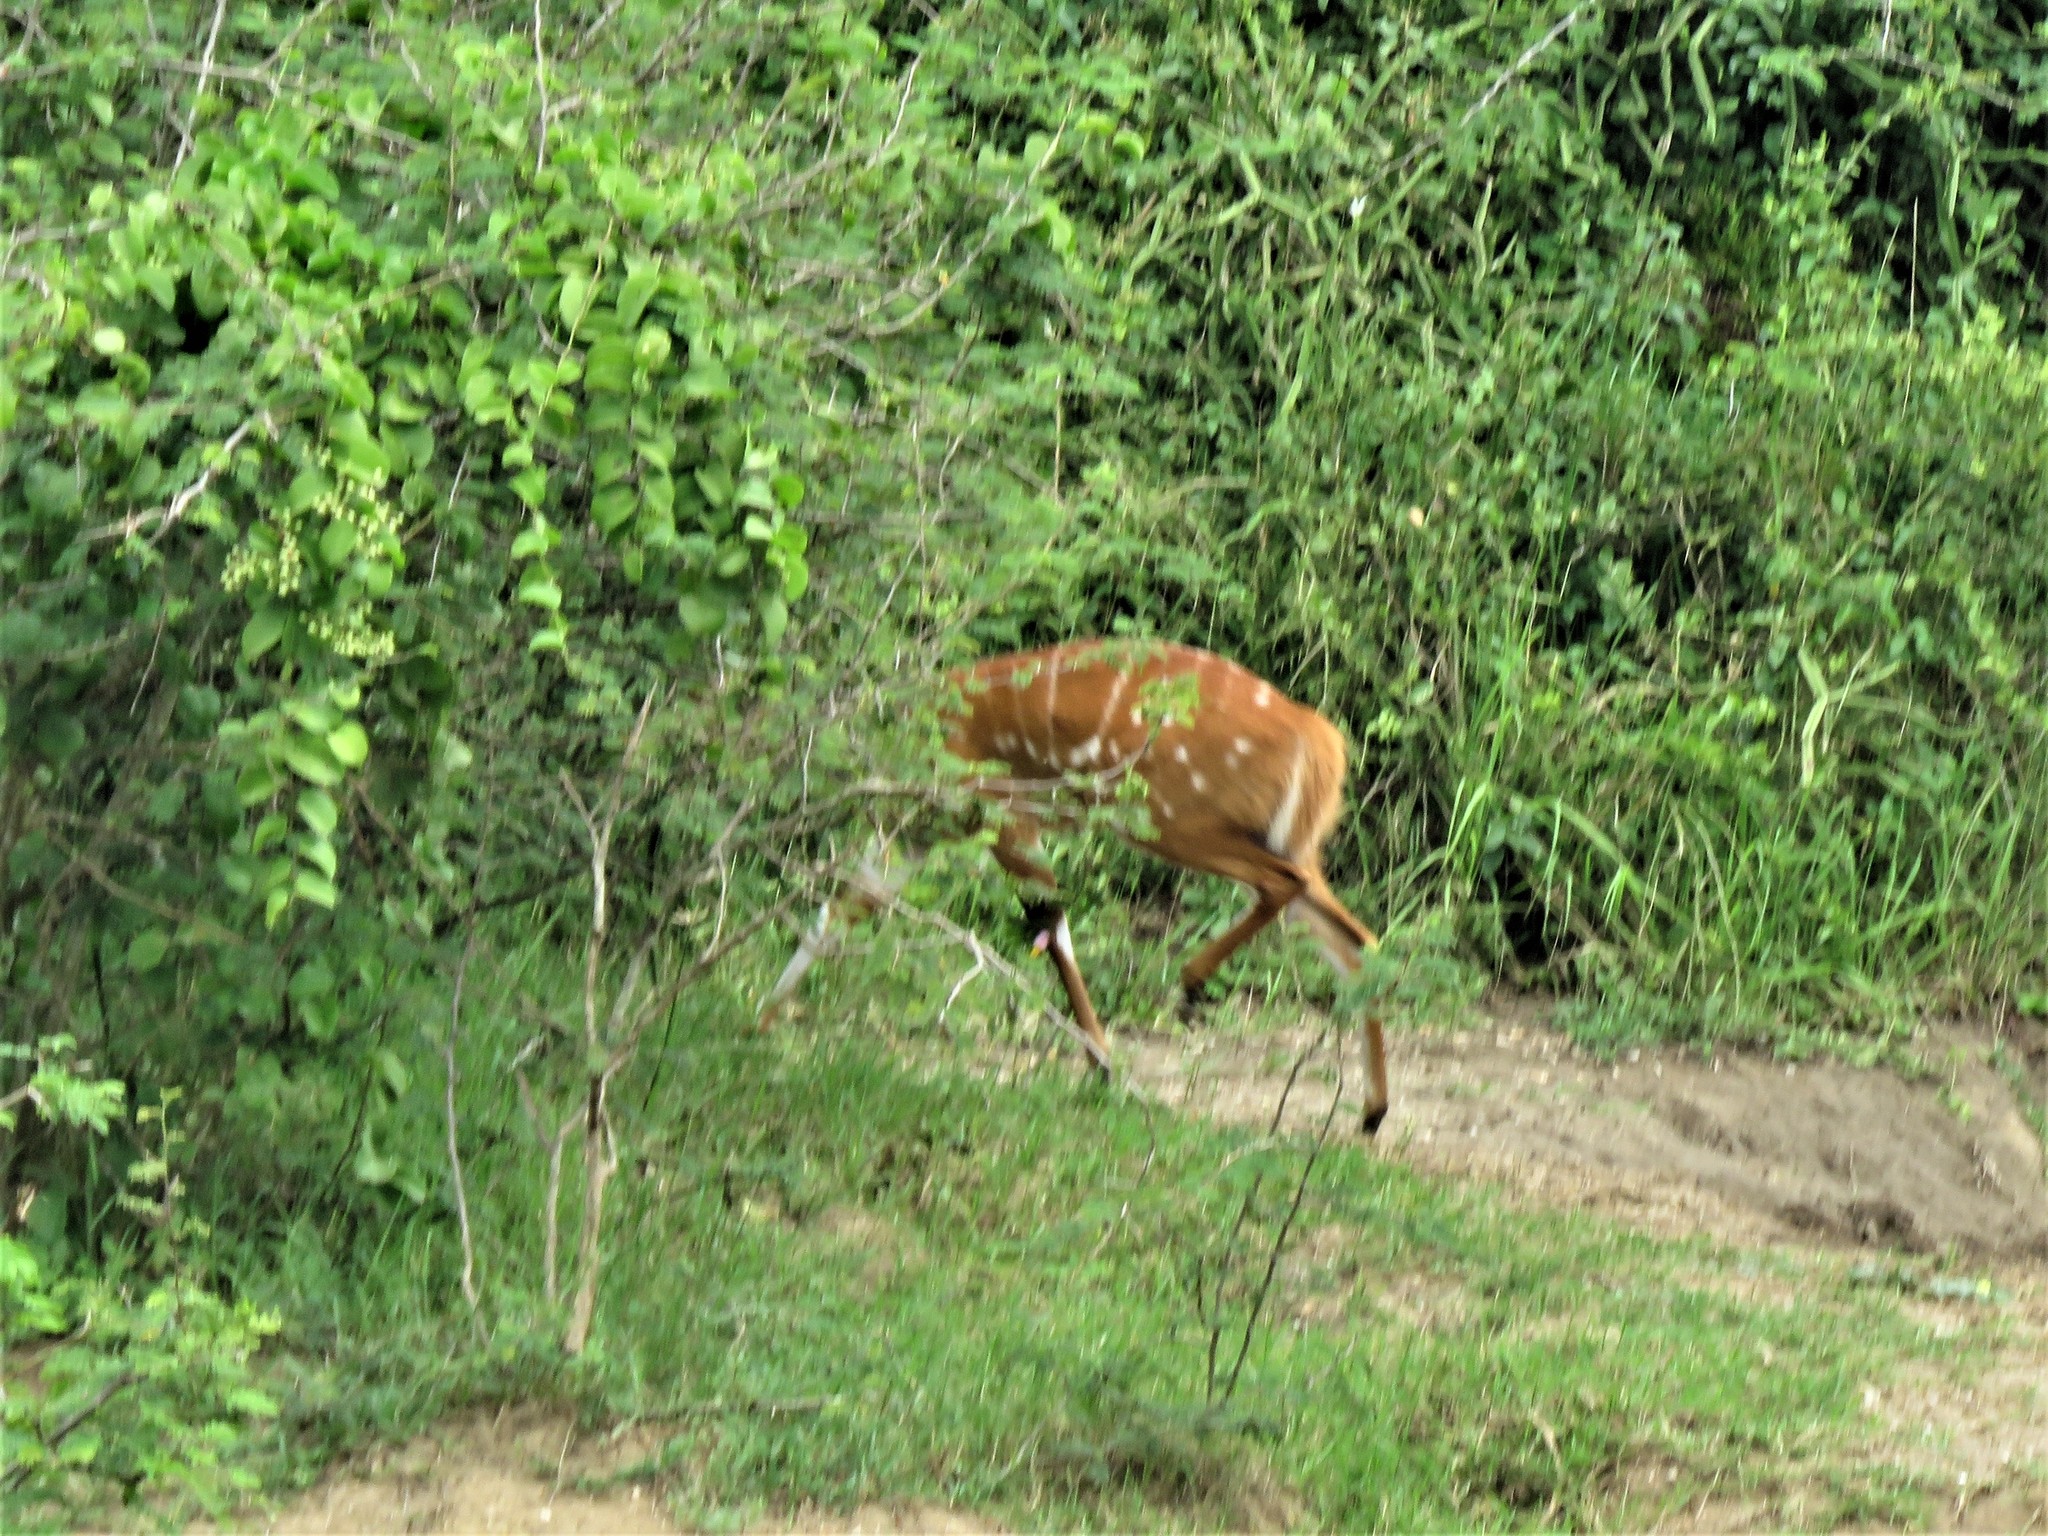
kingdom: Animalia
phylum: Chordata
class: Mammalia
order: Artiodactyla
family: Bovidae
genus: Tragelaphus
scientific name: Tragelaphus scriptus
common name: Bushbuck
